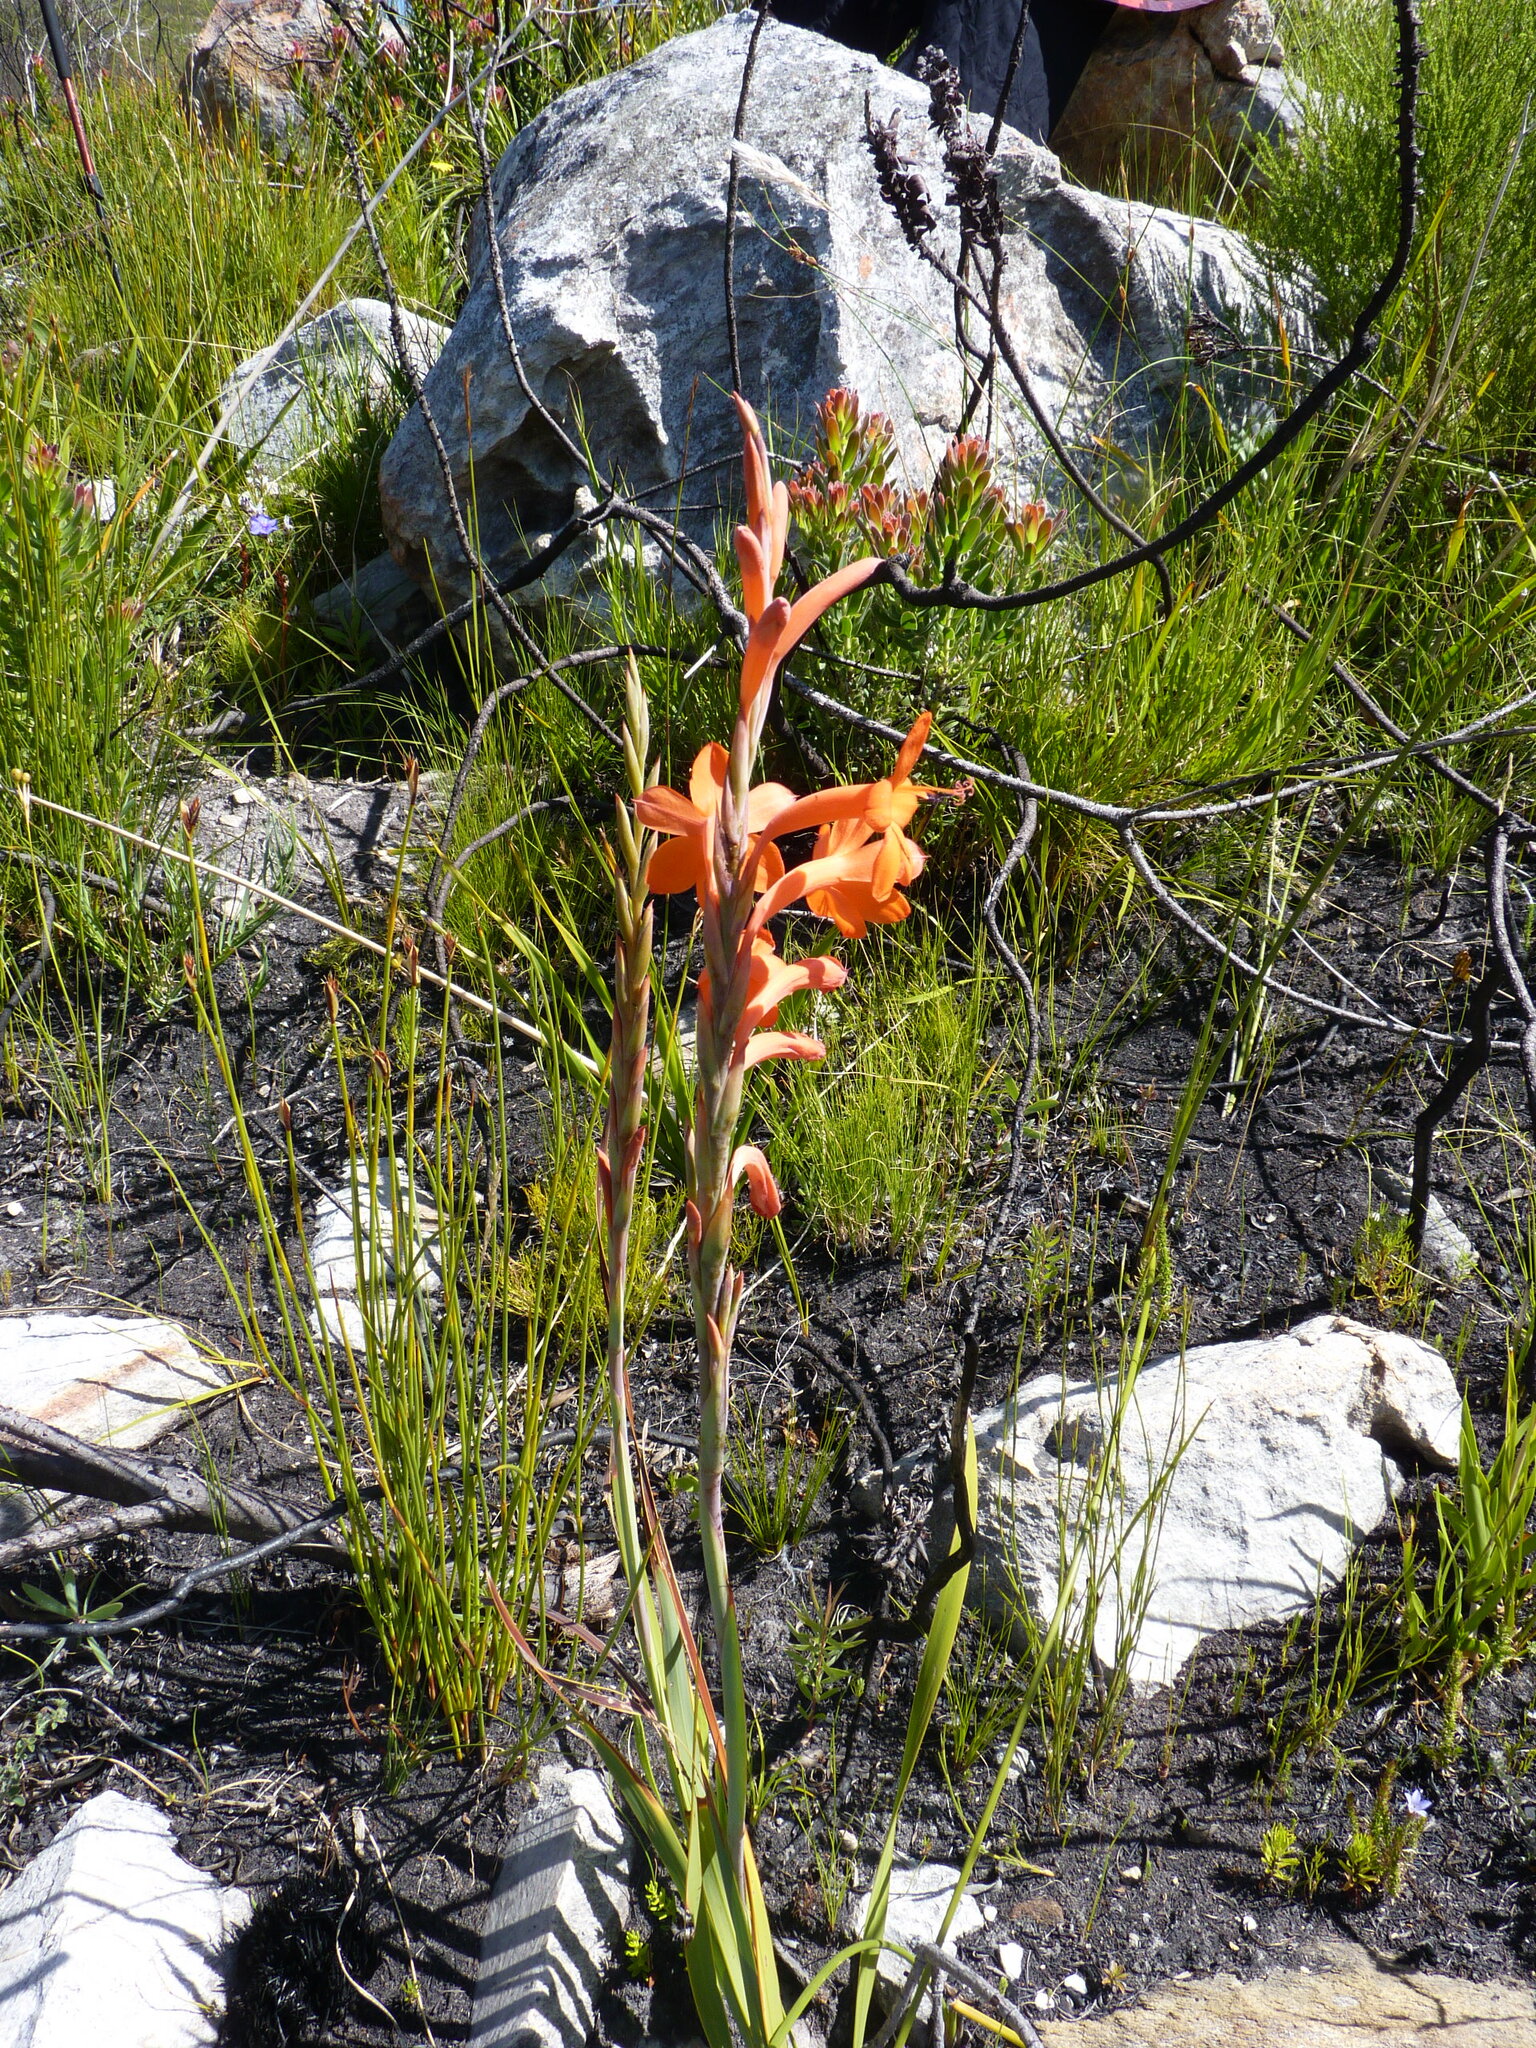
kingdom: Plantae
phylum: Tracheophyta
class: Liliopsida
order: Asparagales
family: Iridaceae
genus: Watsonia
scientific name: Watsonia schlechteri
